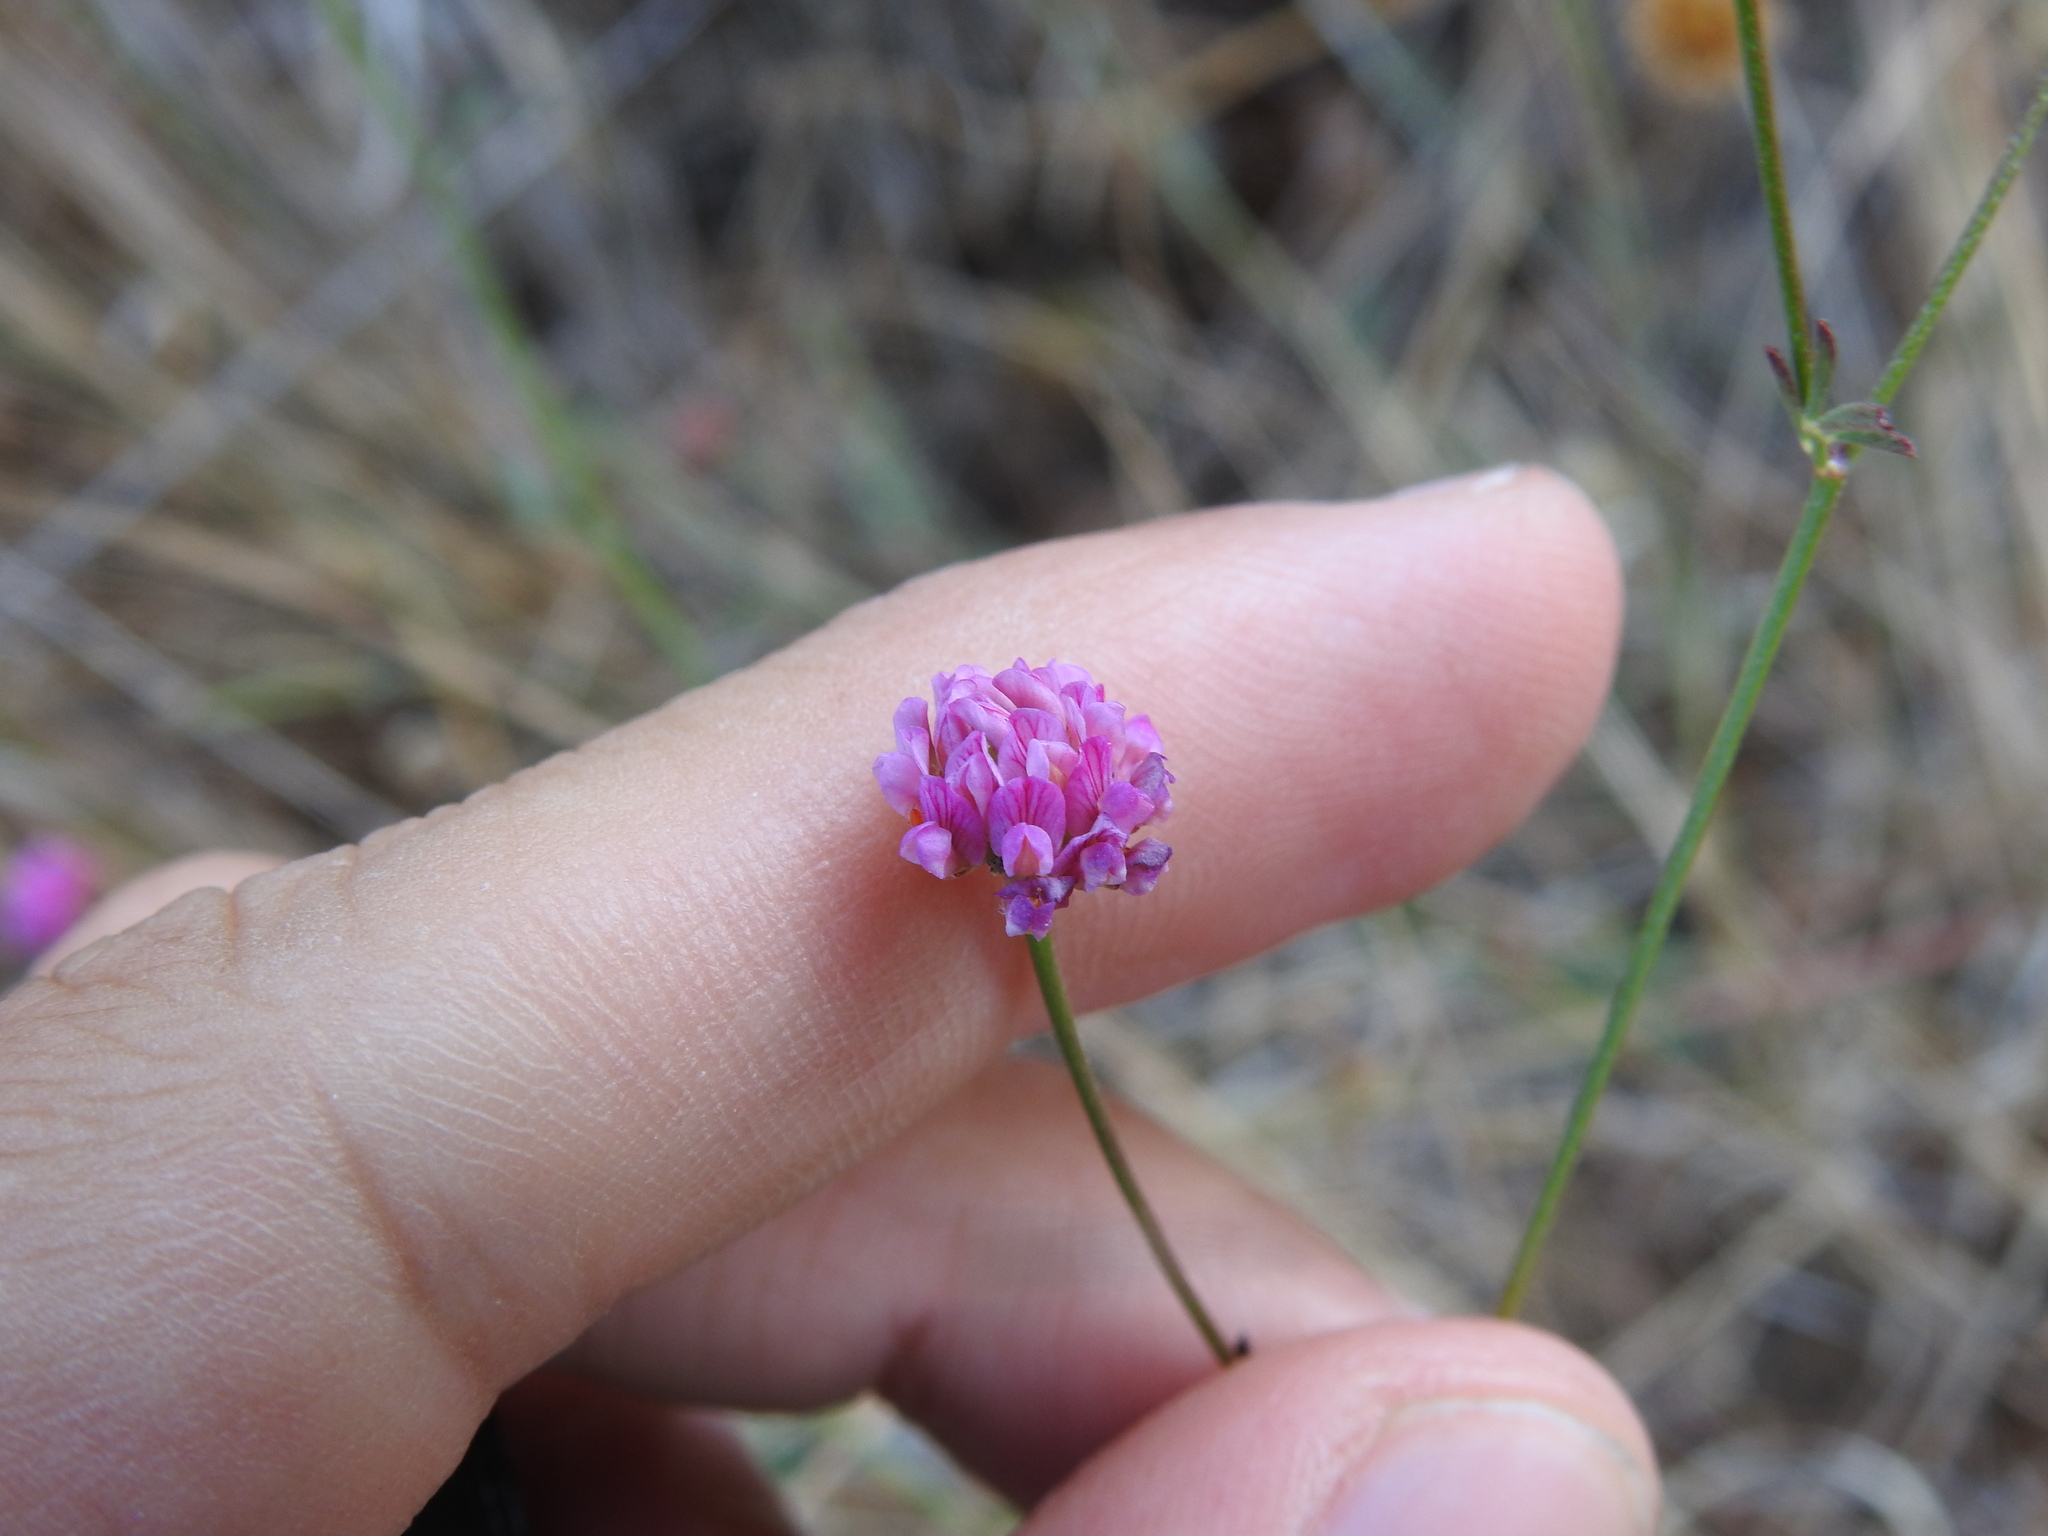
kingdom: Plantae
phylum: Tracheophyta
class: Magnoliopsida
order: Fabales
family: Fabaceae
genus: Dorycnopsis
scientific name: Dorycnopsis gerardi
